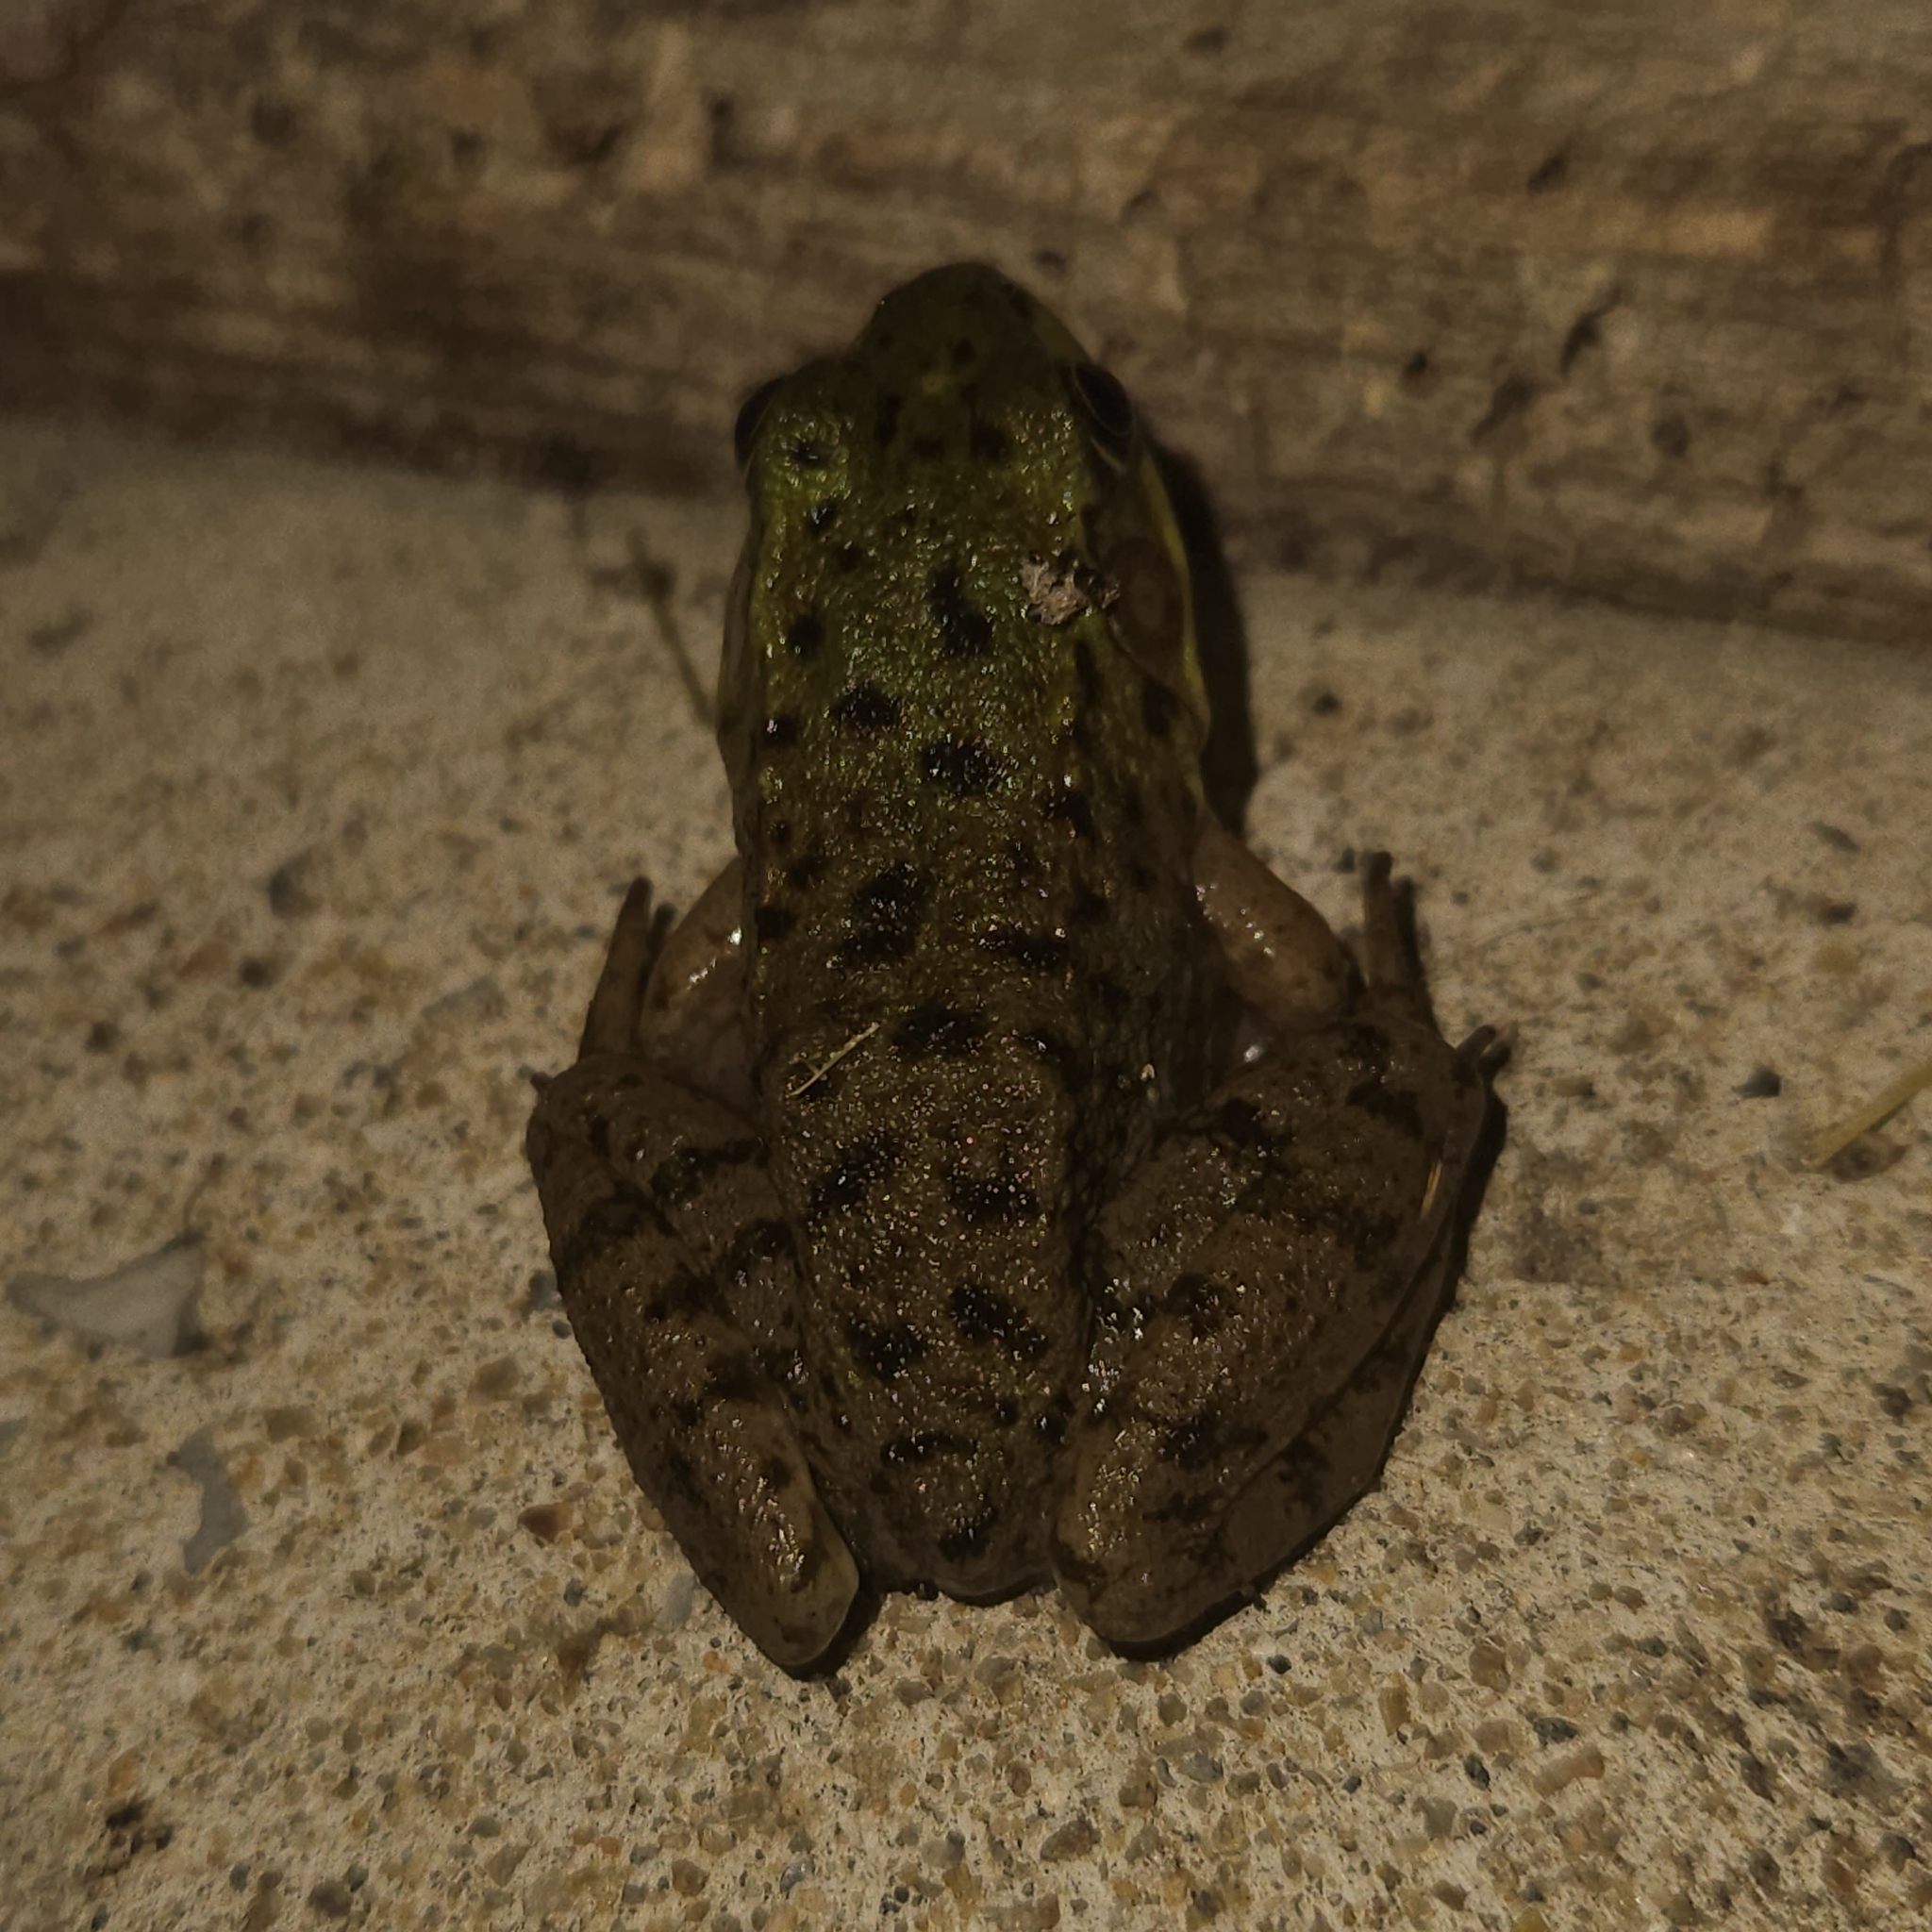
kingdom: Animalia
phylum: Chordata
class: Amphibia
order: Anura
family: Ranidae
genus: Lithobates
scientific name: Lithobates clamitans
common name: Green frog
